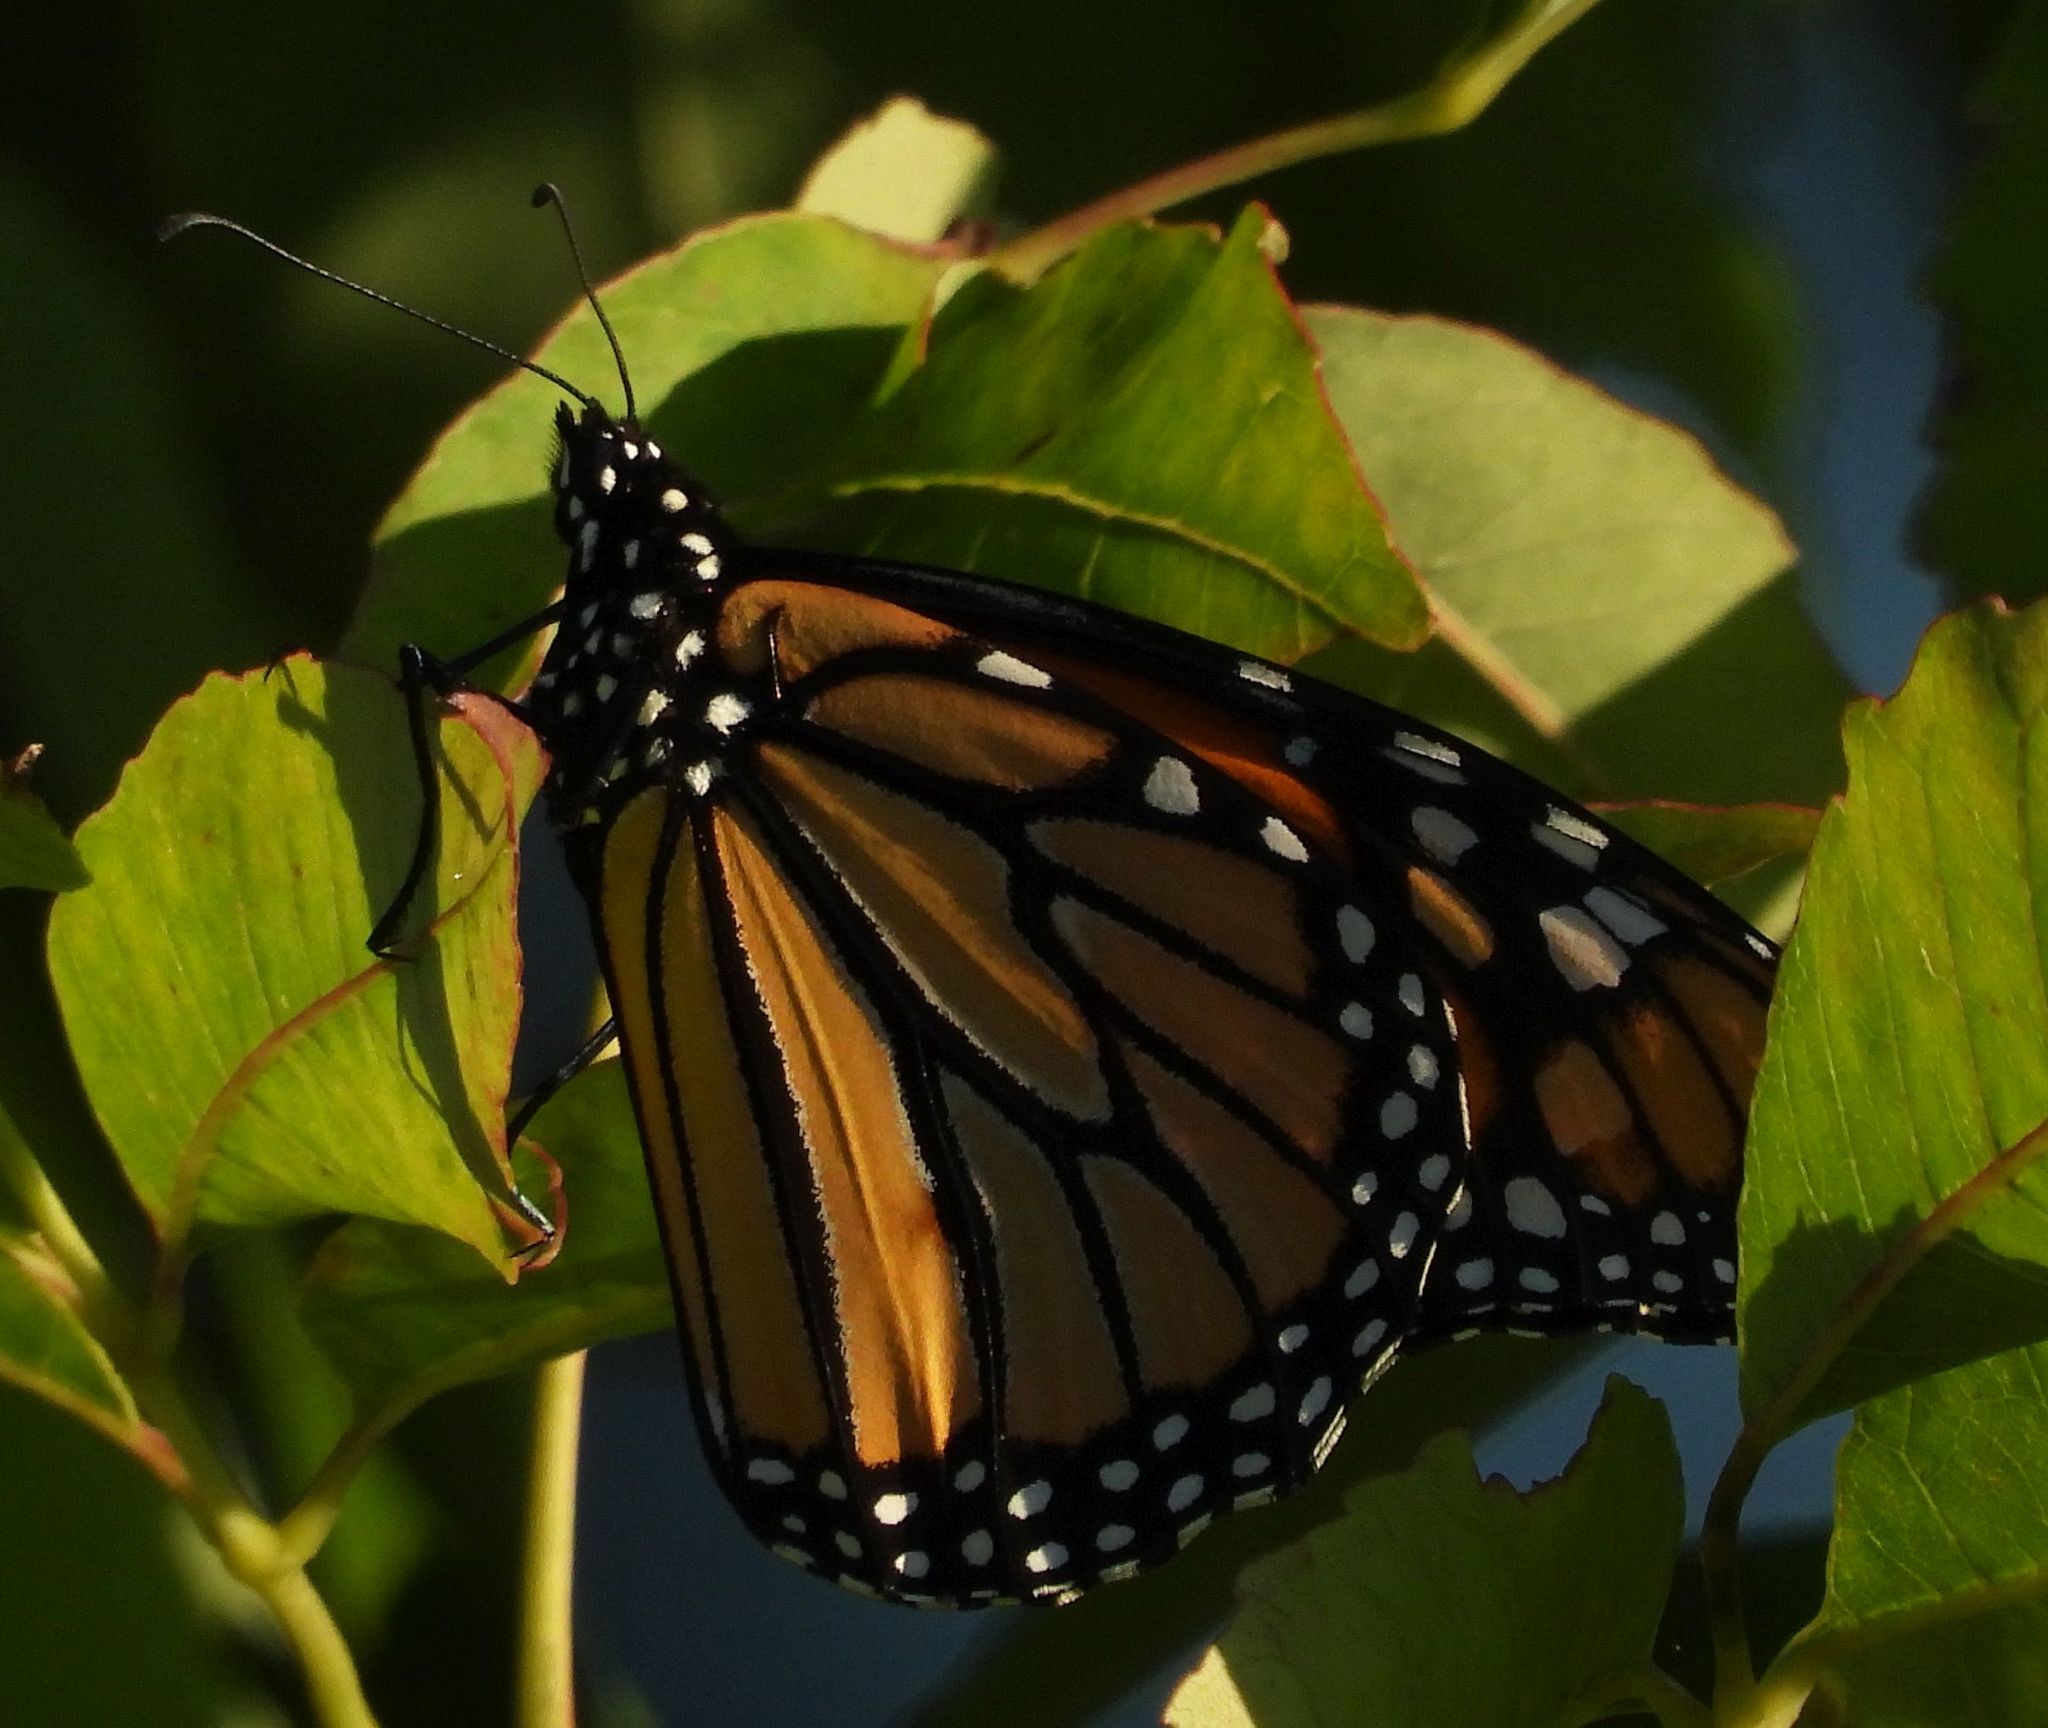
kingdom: Animalia
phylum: Arthropoda
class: Insecta
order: Lepidoptera
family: Nymphalidae
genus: Danaus
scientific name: Danaus plexippus
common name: Monarch
